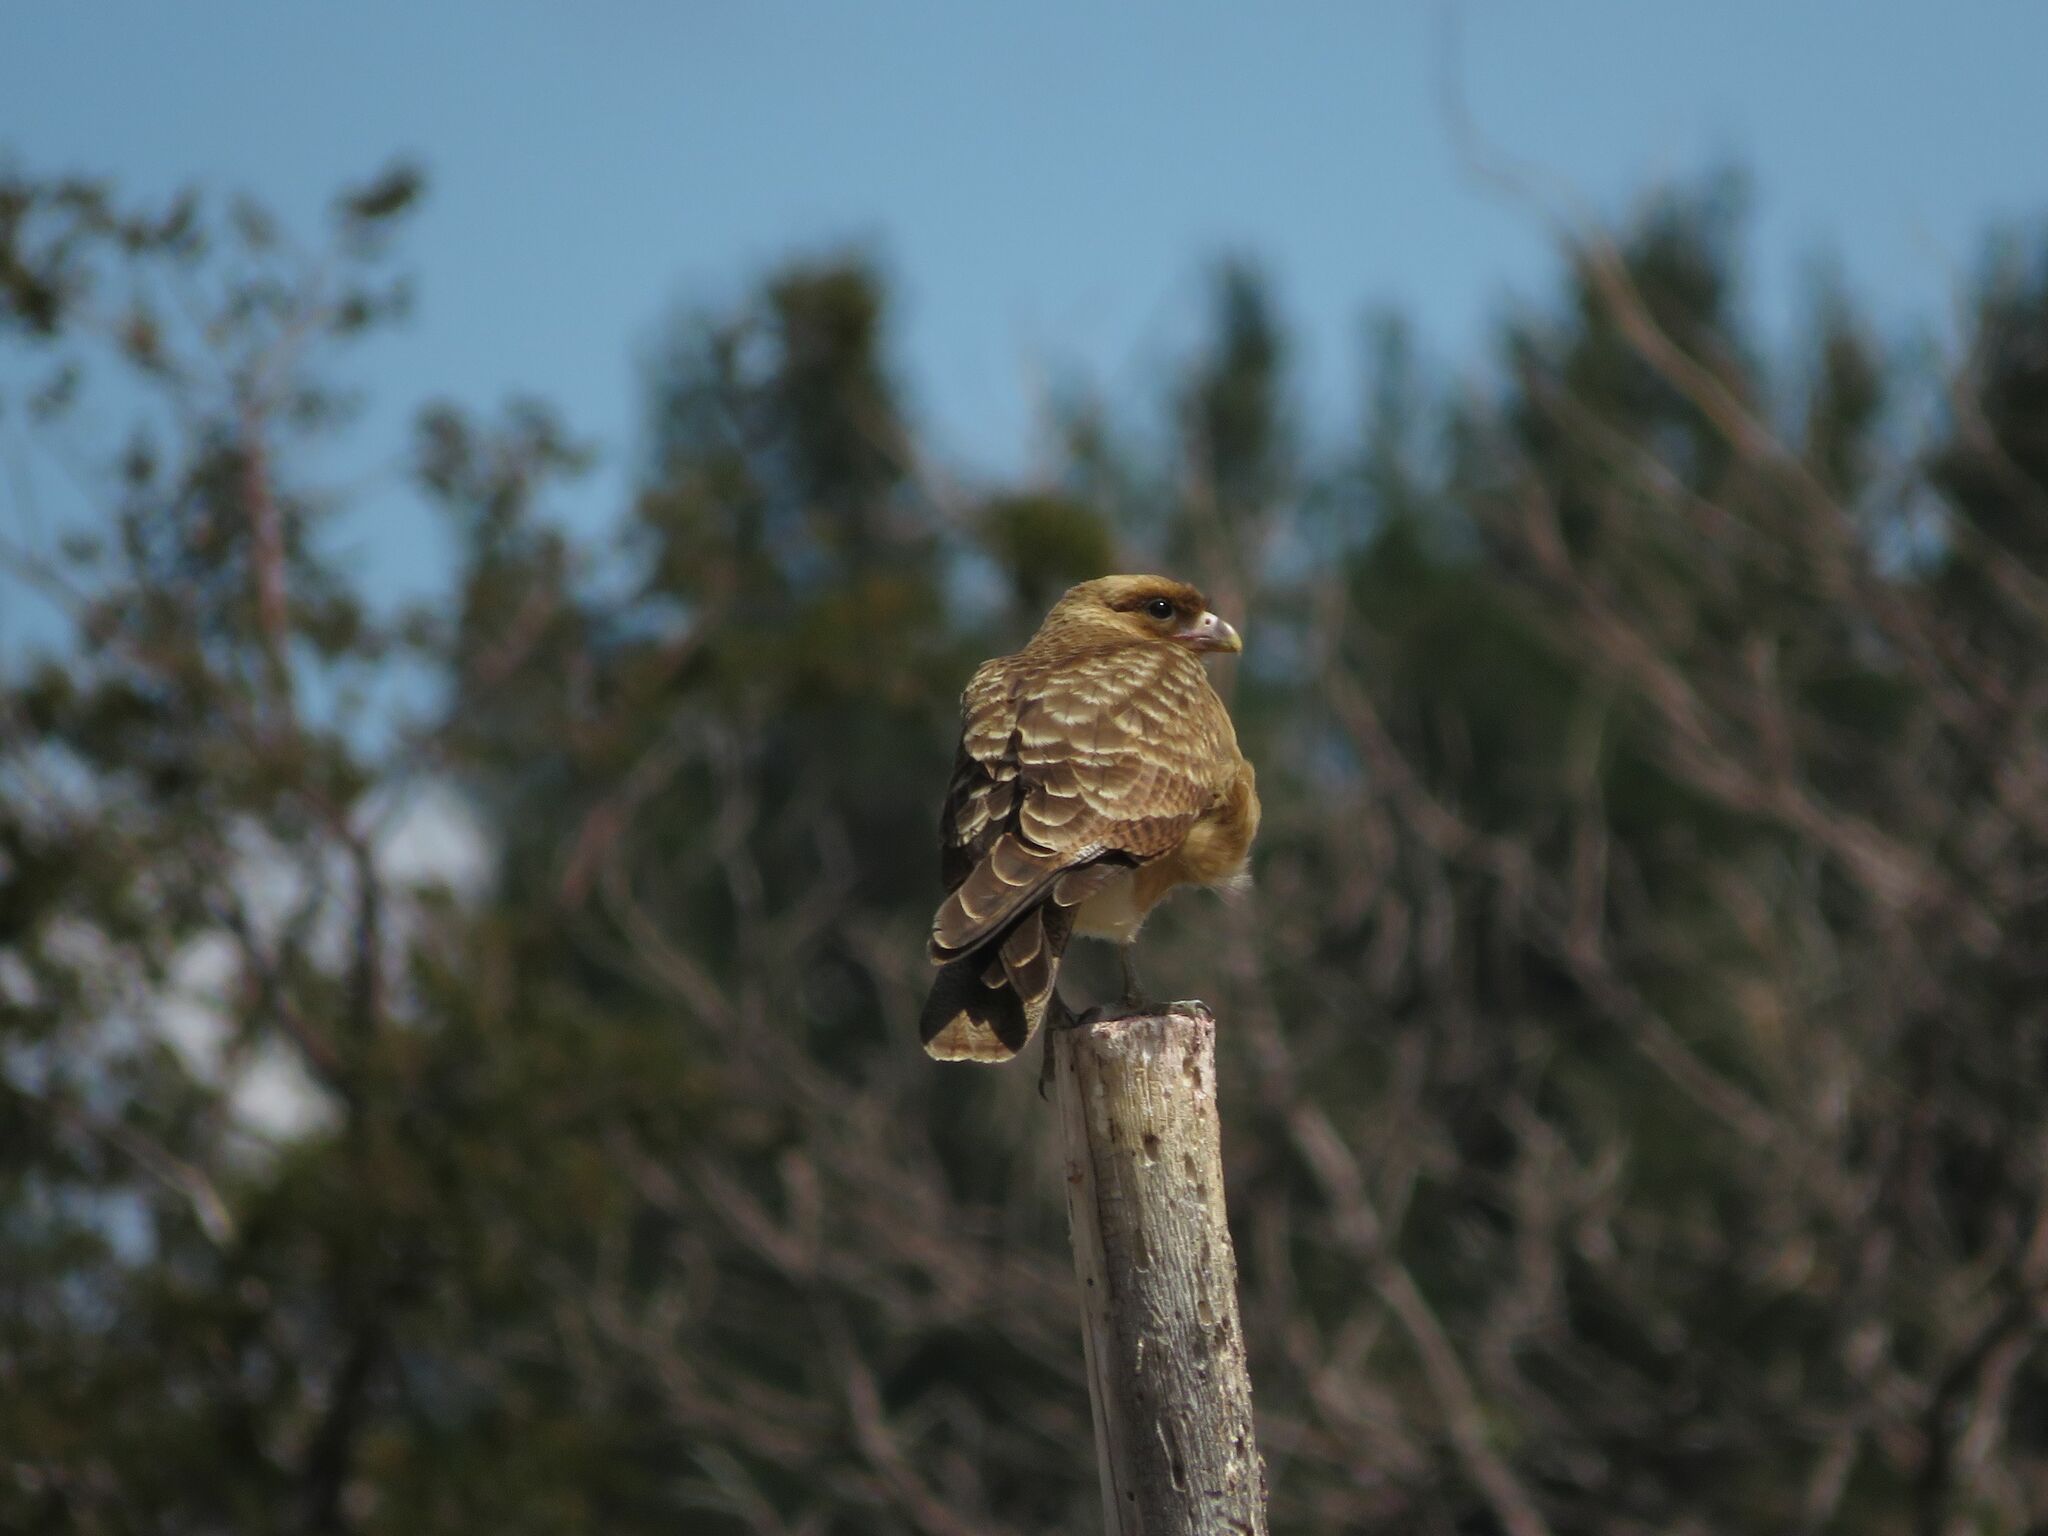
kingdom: Animalia
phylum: Chordata
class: Aves
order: Falconiformes
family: Falconidae
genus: Daptrius
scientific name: Daptrius
